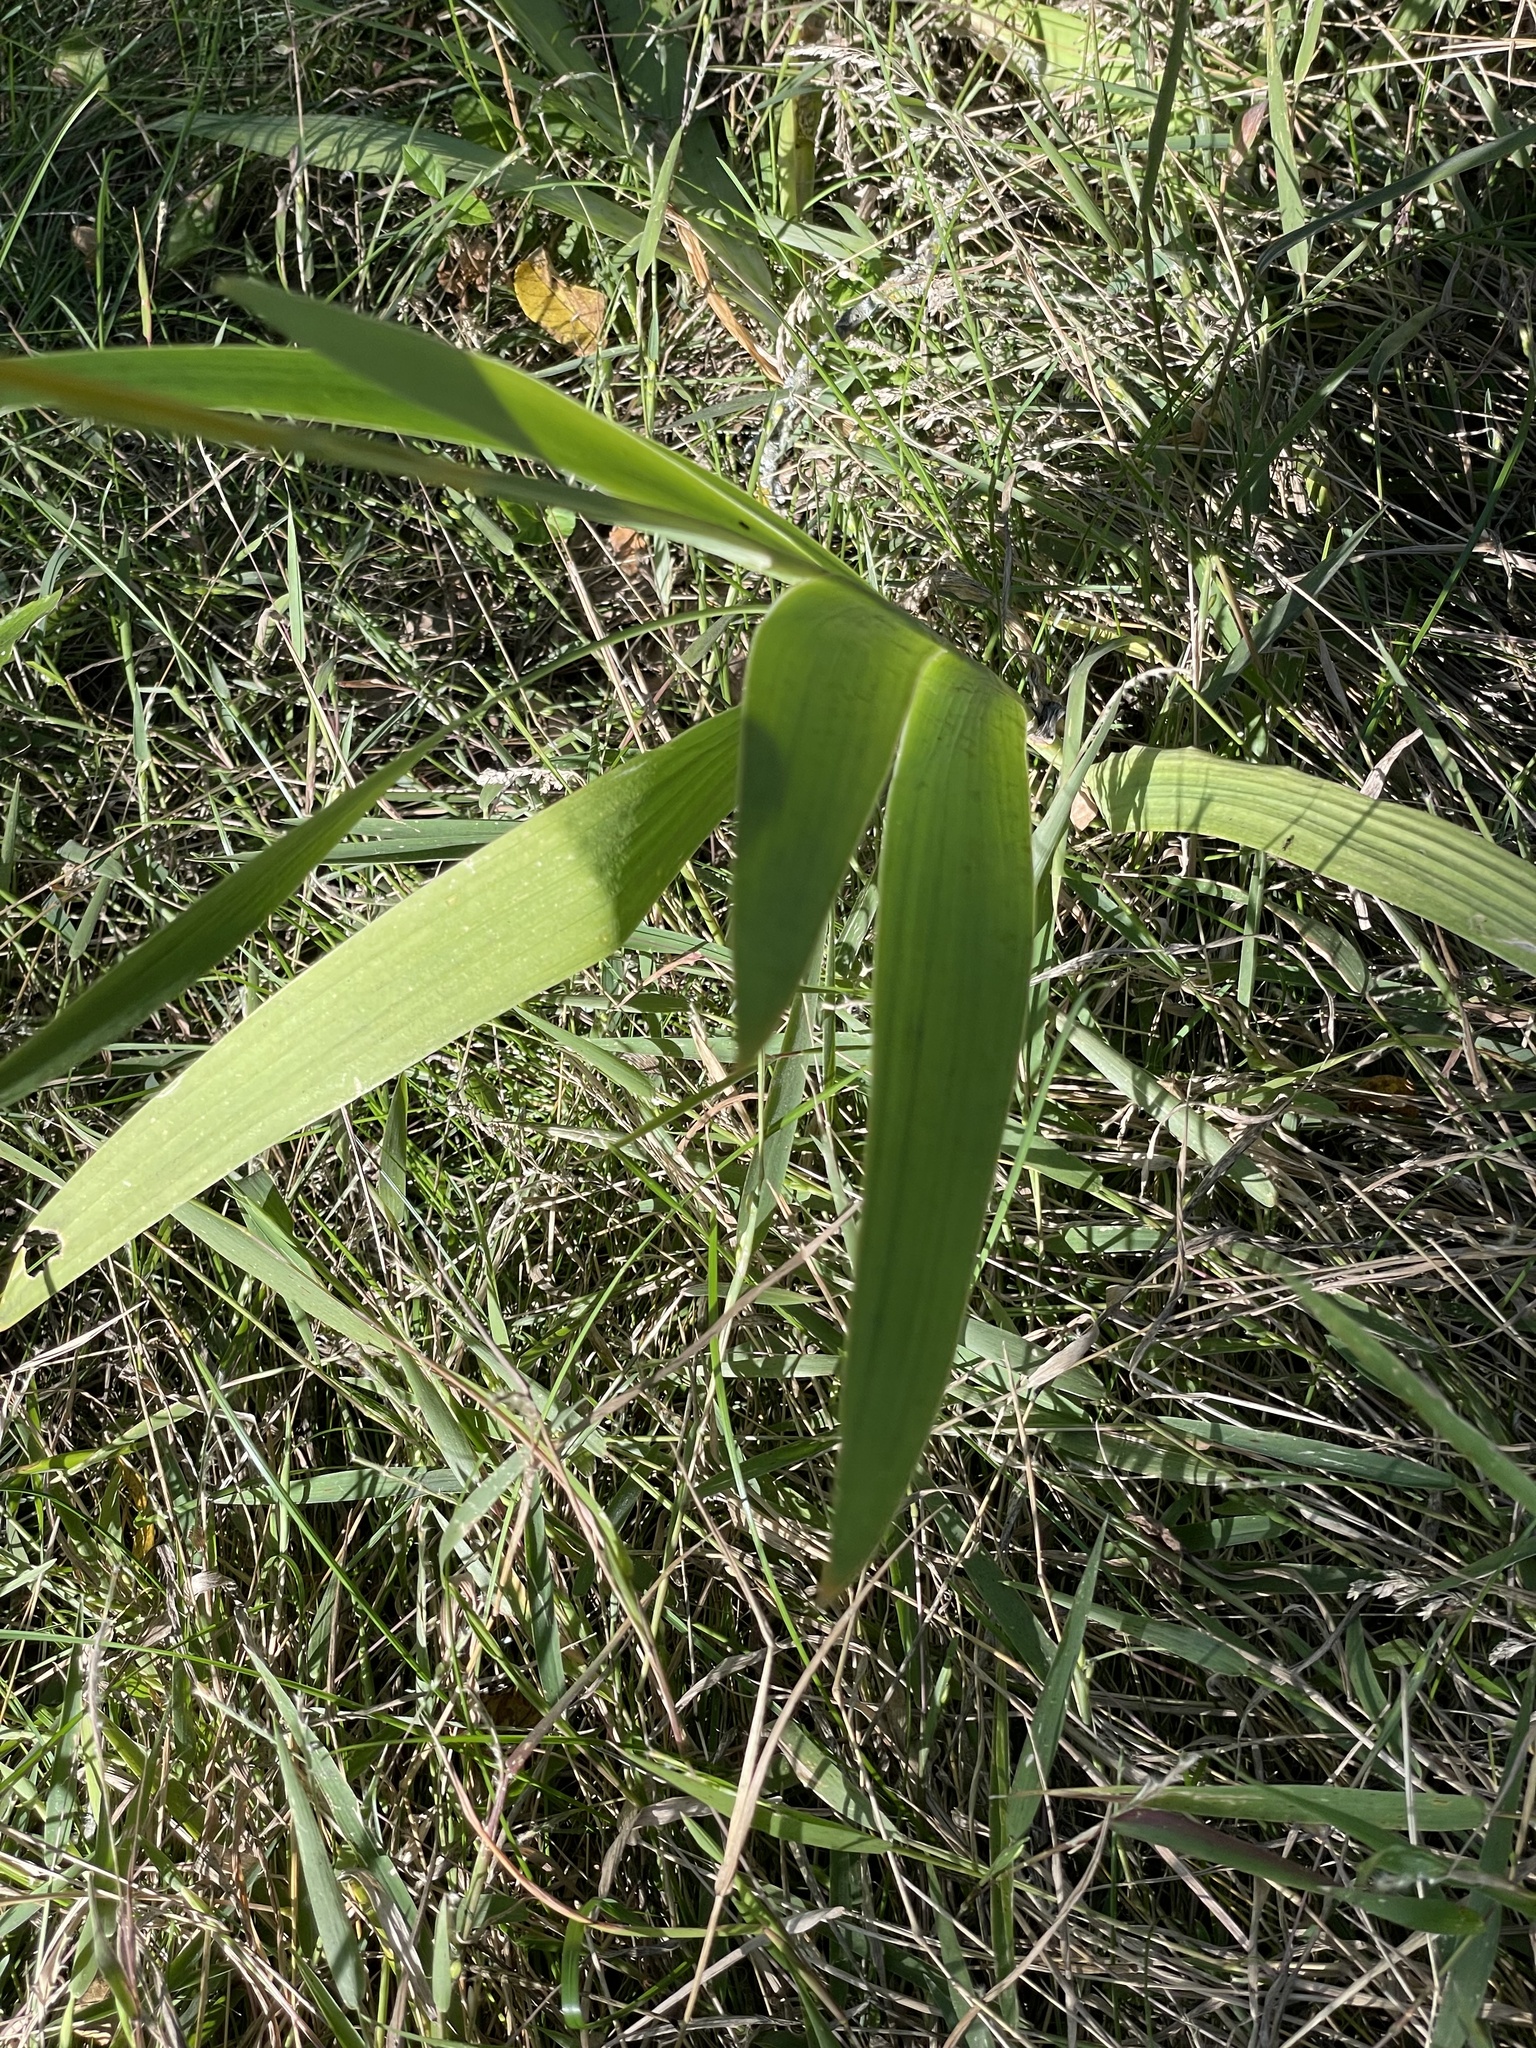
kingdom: Plantae
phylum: Tracheophyta
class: Liliopsida
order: Asparagales
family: Iridaceae
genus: Iris
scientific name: Iris domestica
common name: Belamcanda
